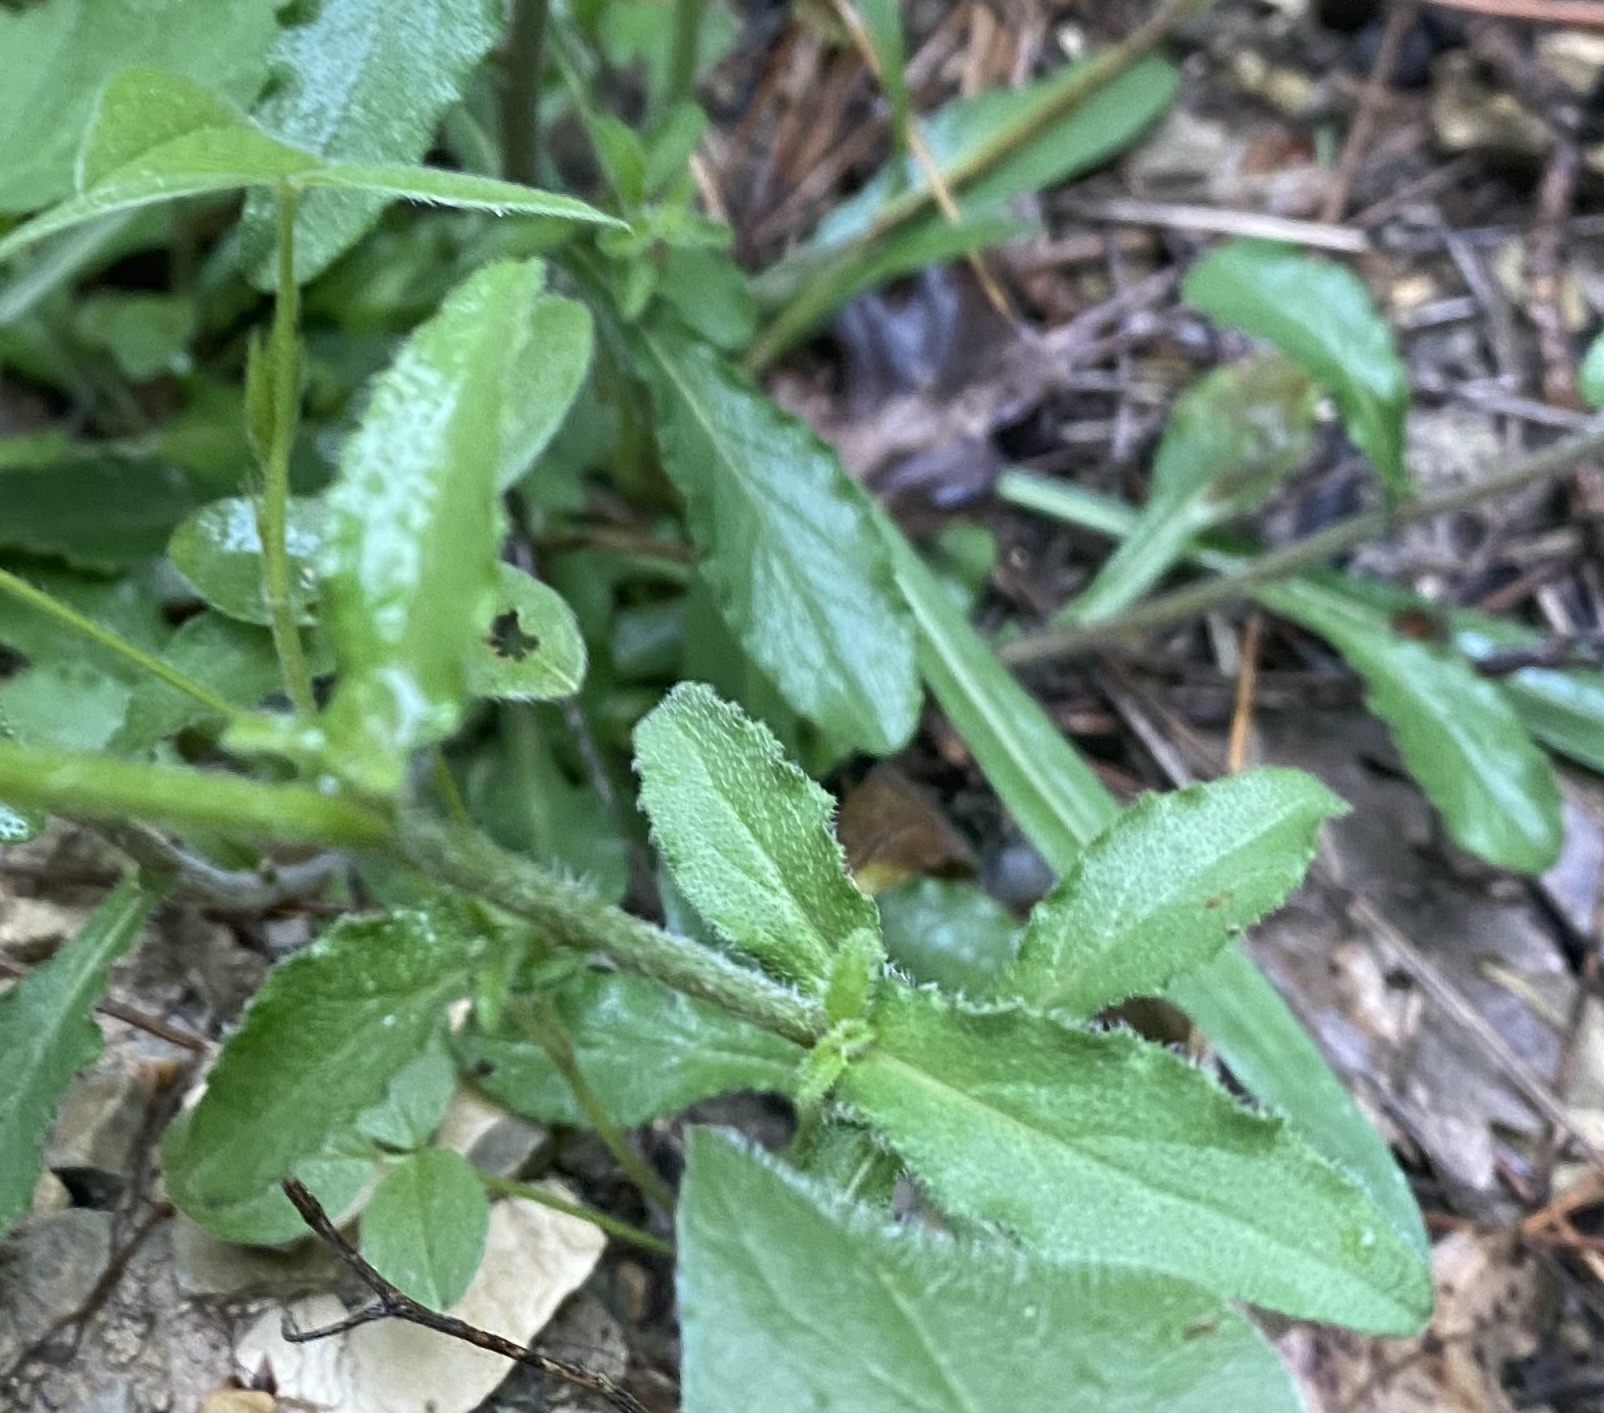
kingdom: Plantae
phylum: Tracheophyta
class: Magnoliopsida
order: Asterales
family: Campanulaceae
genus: Campanula
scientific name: Campanula komarovii
